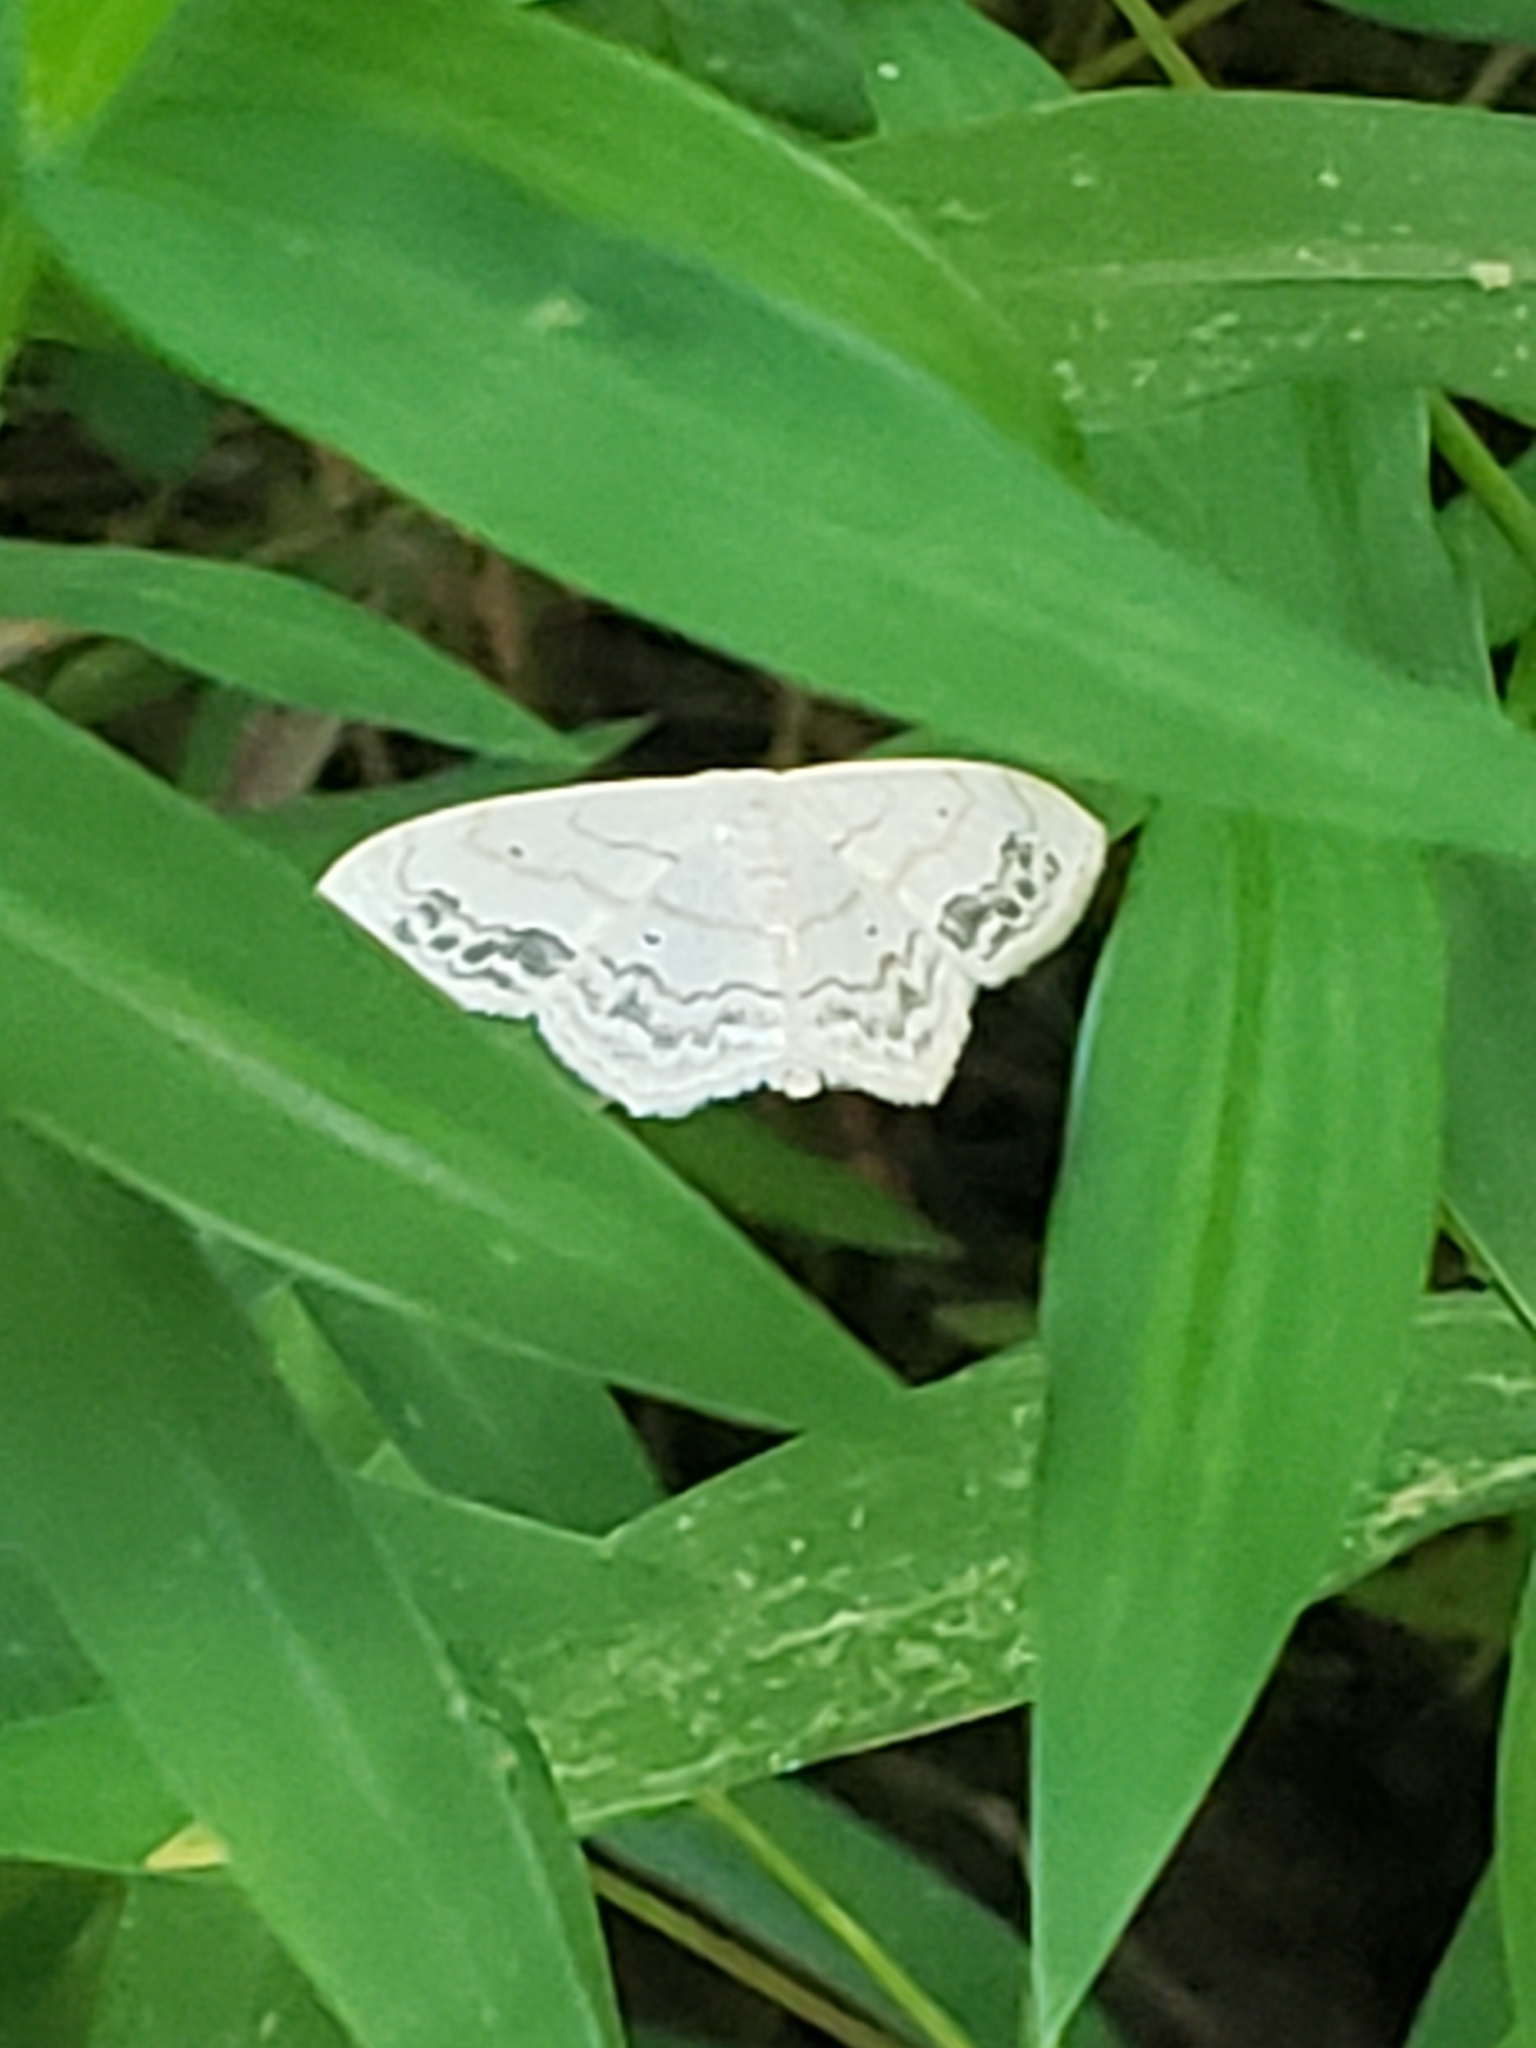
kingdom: Animalia
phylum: Arthropoda
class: Insecta
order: Lepidoptera
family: Geometridae
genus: Scopula
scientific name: Scopula limboundata
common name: Large lace border
